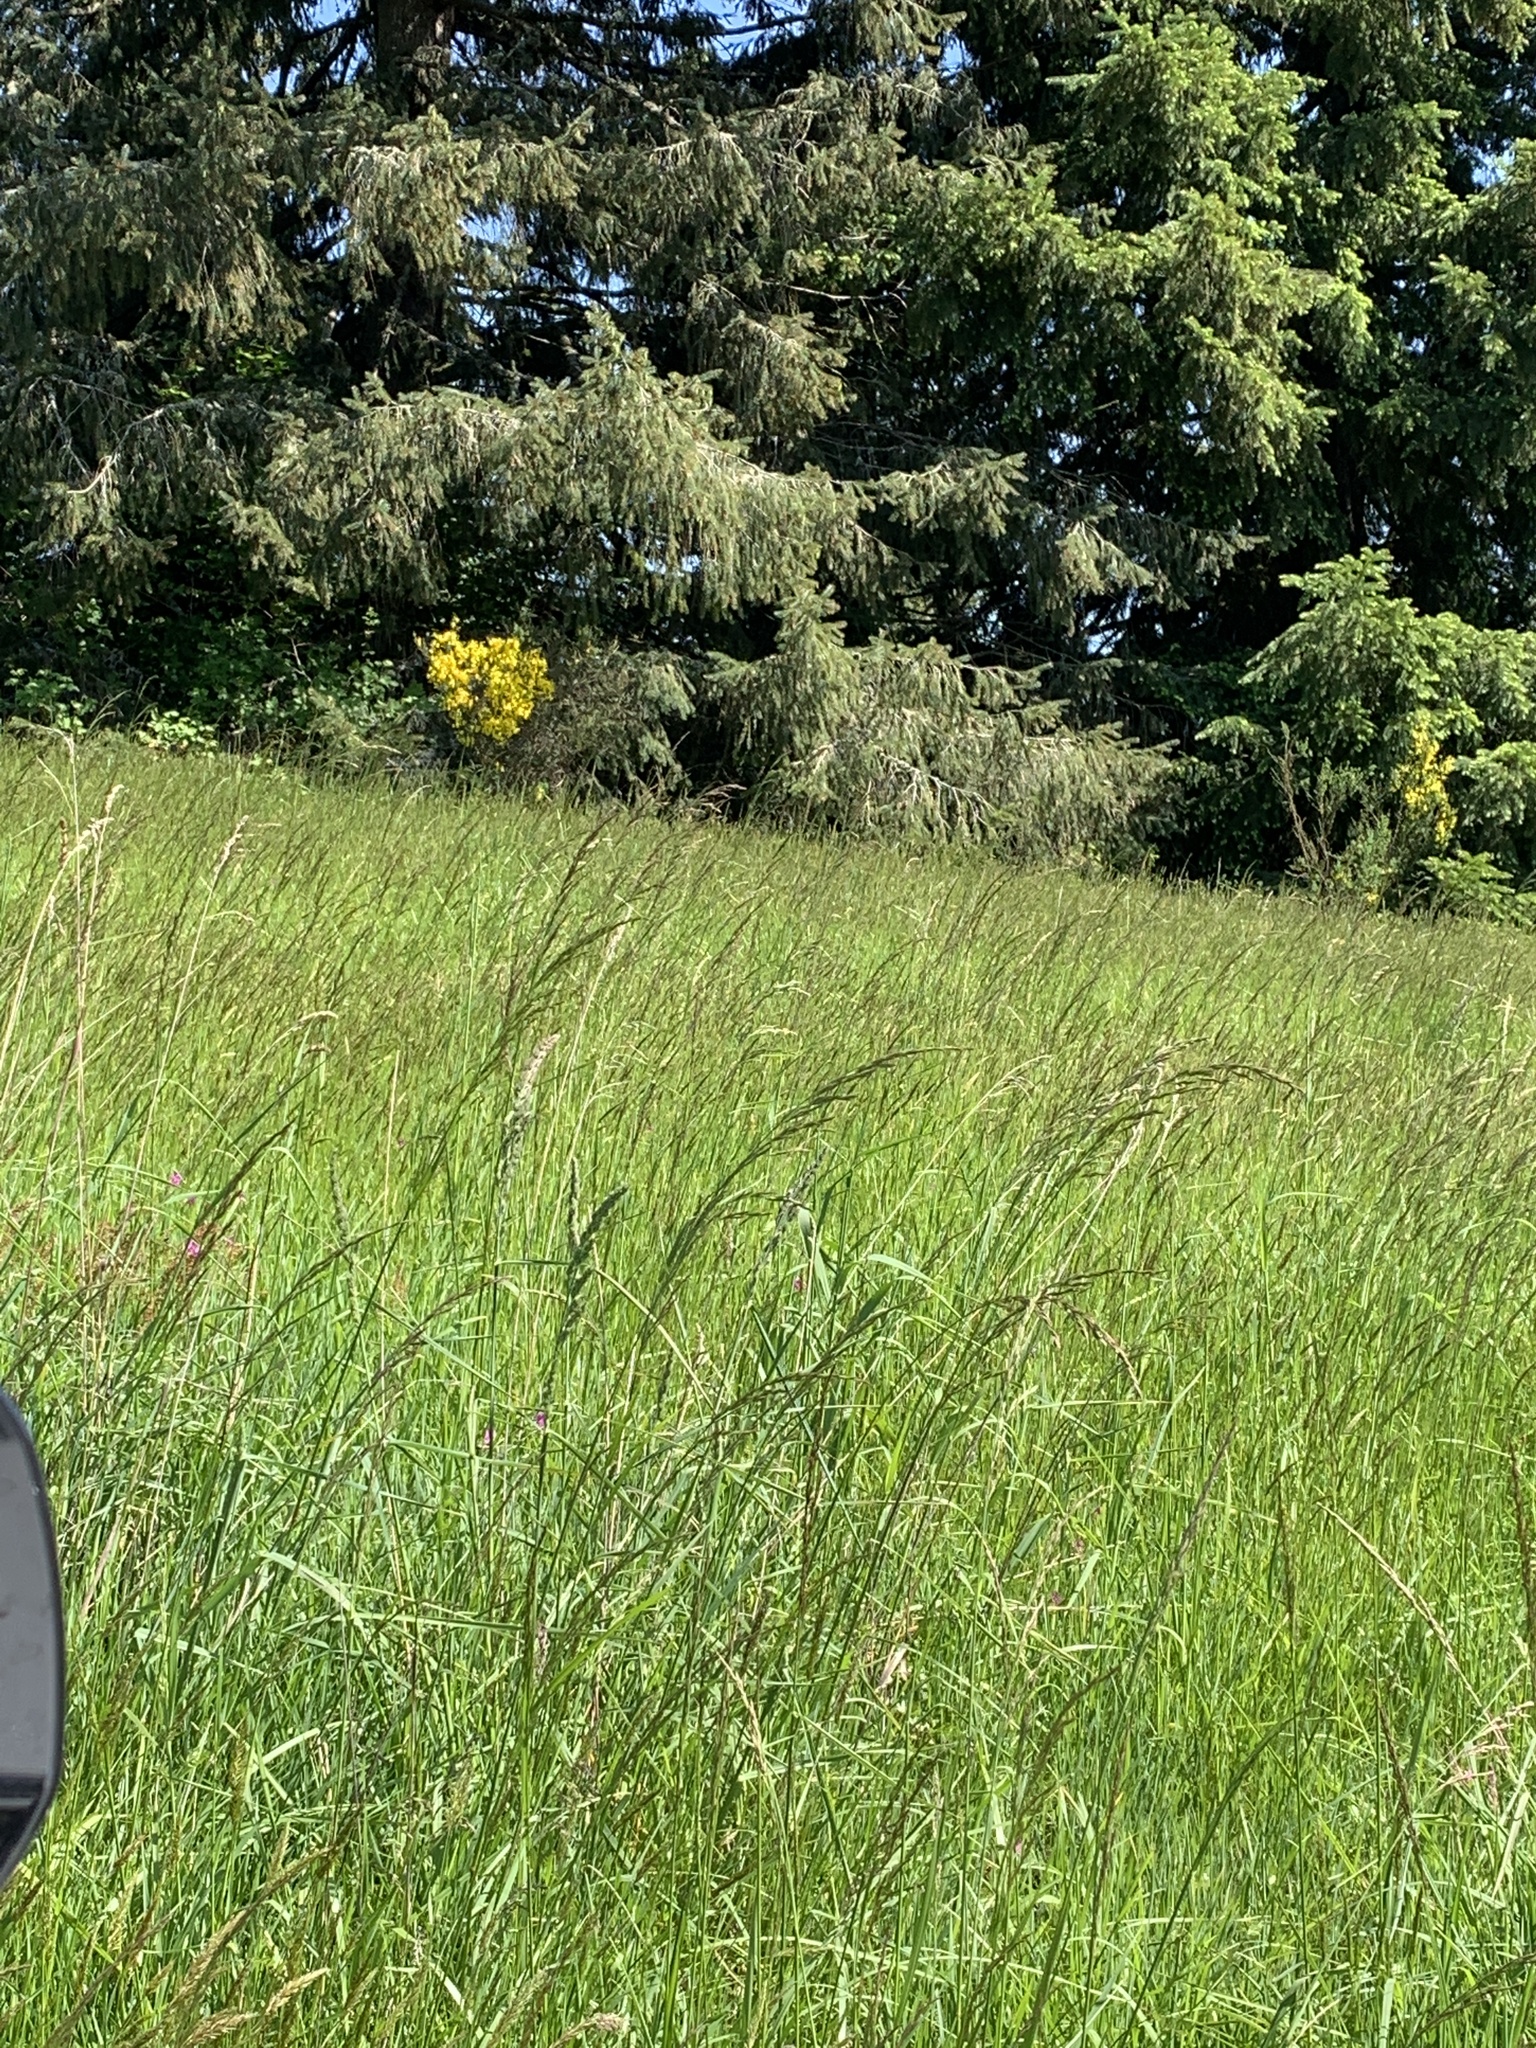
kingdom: Plantae
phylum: Tracheophyta
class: Magnoliopsida
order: Fabales
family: Fabaceae
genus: Cytisus
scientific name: Cytisus scoparius
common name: Scotch broom
